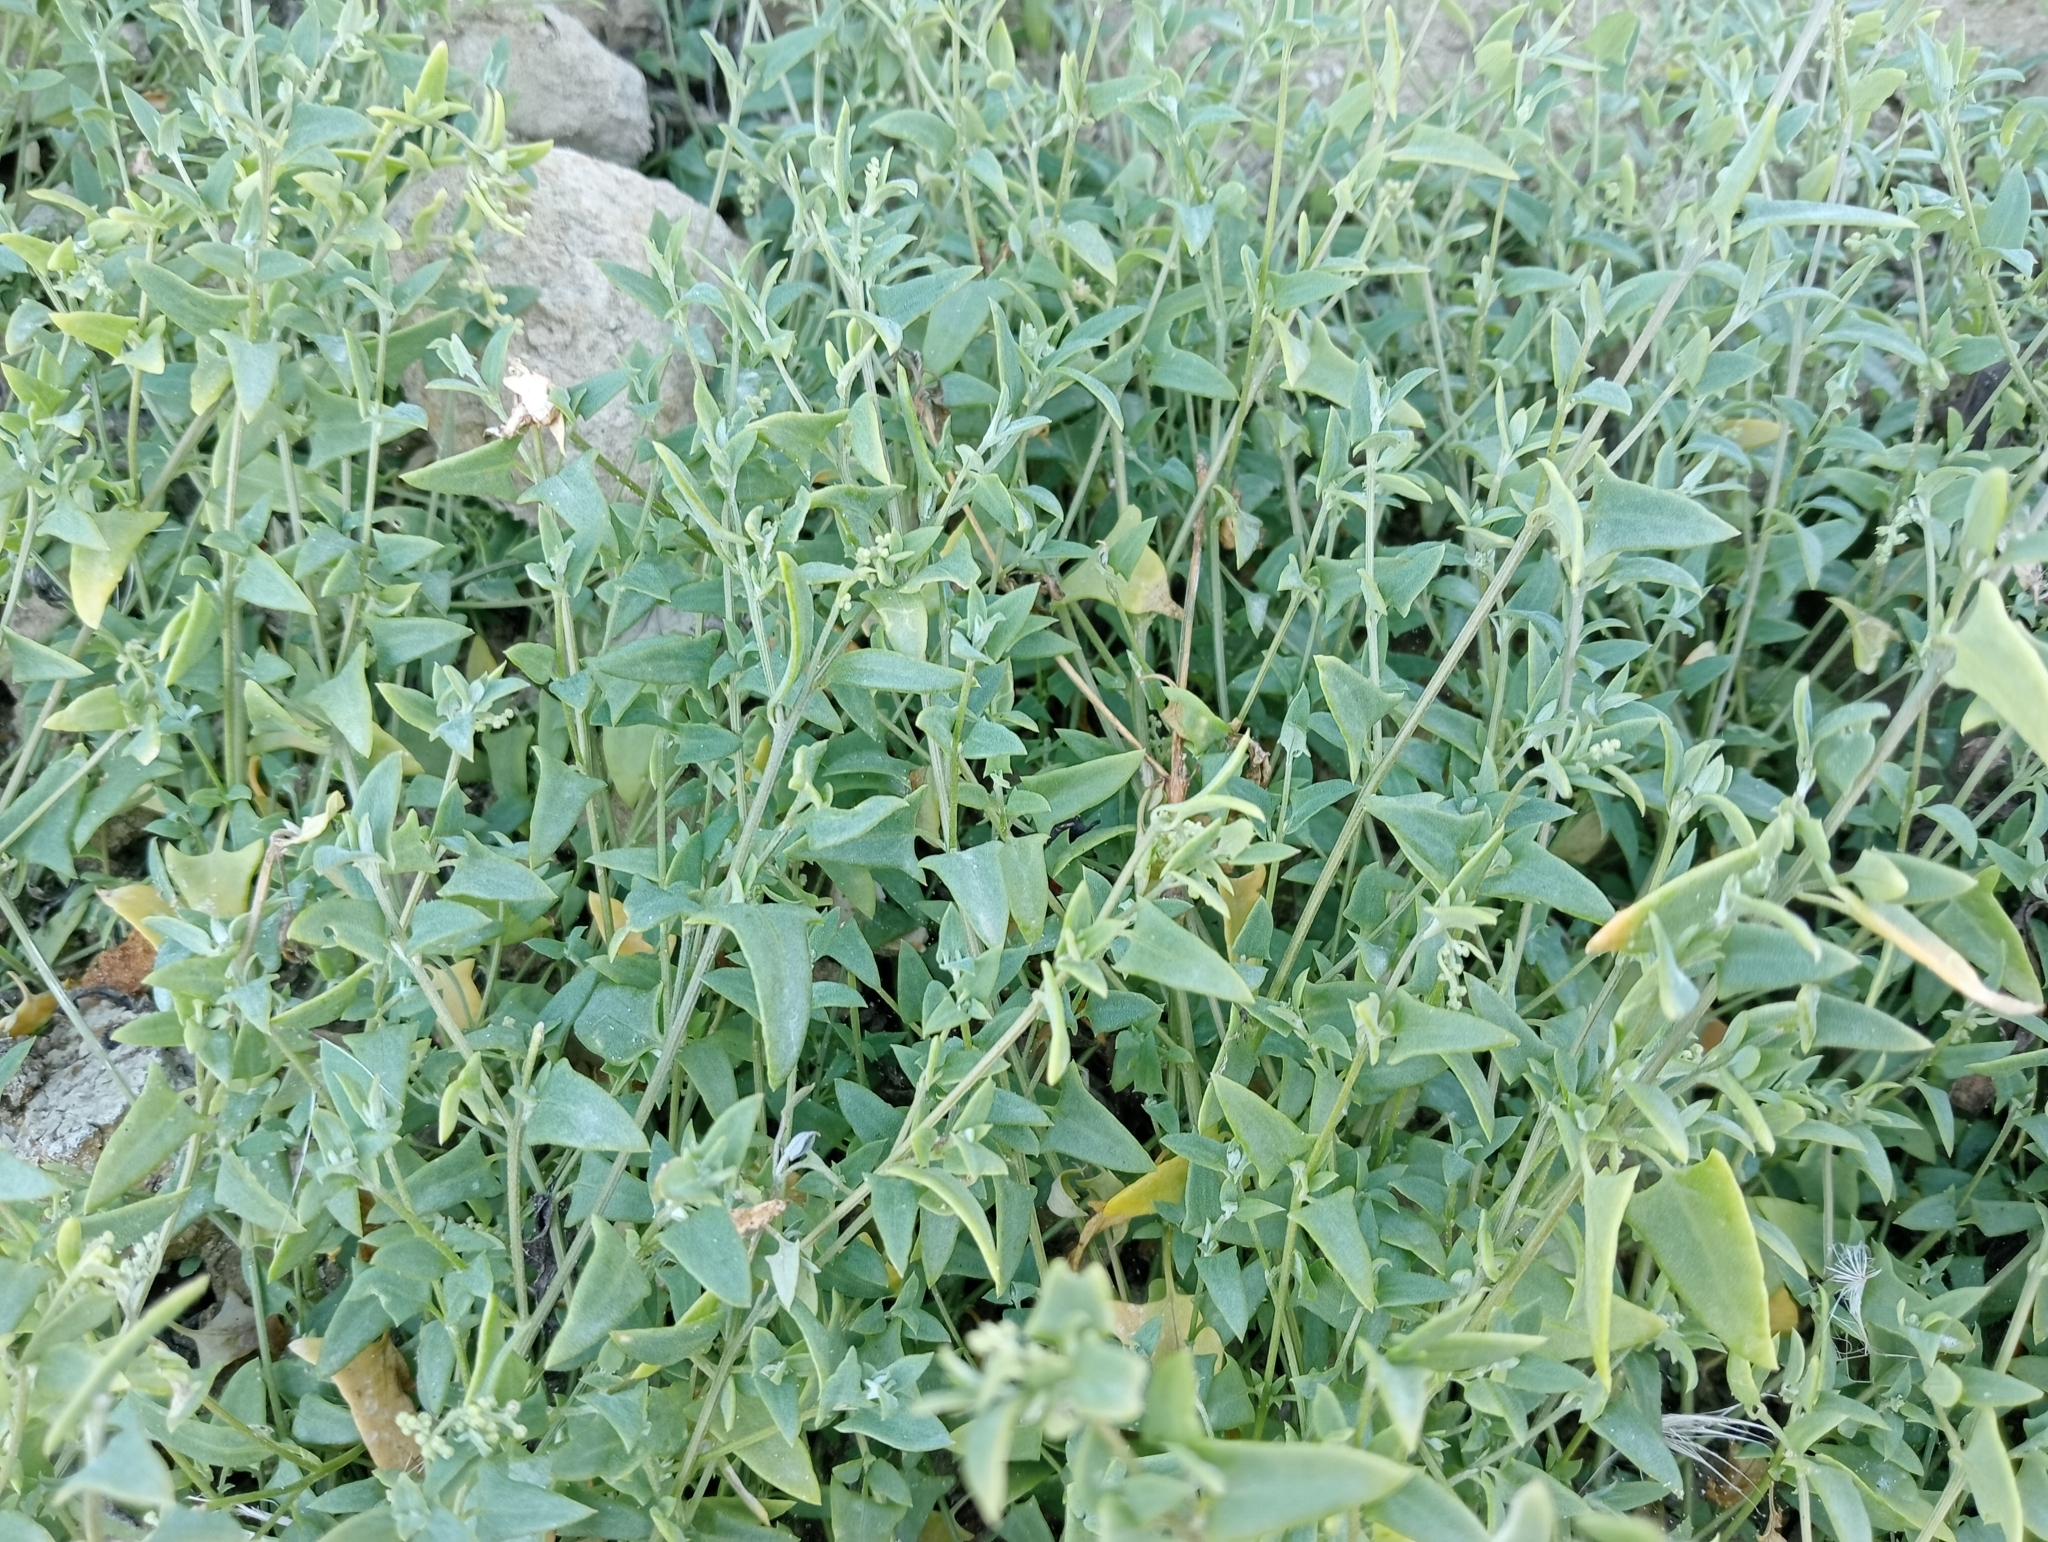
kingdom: Plantae
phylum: Tracheophyta
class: Magnoliopsida
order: Caryophyllales
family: Amaranthaceae
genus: Chenopodium
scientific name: Chenopodium nutans
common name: Climbing-saltbush
